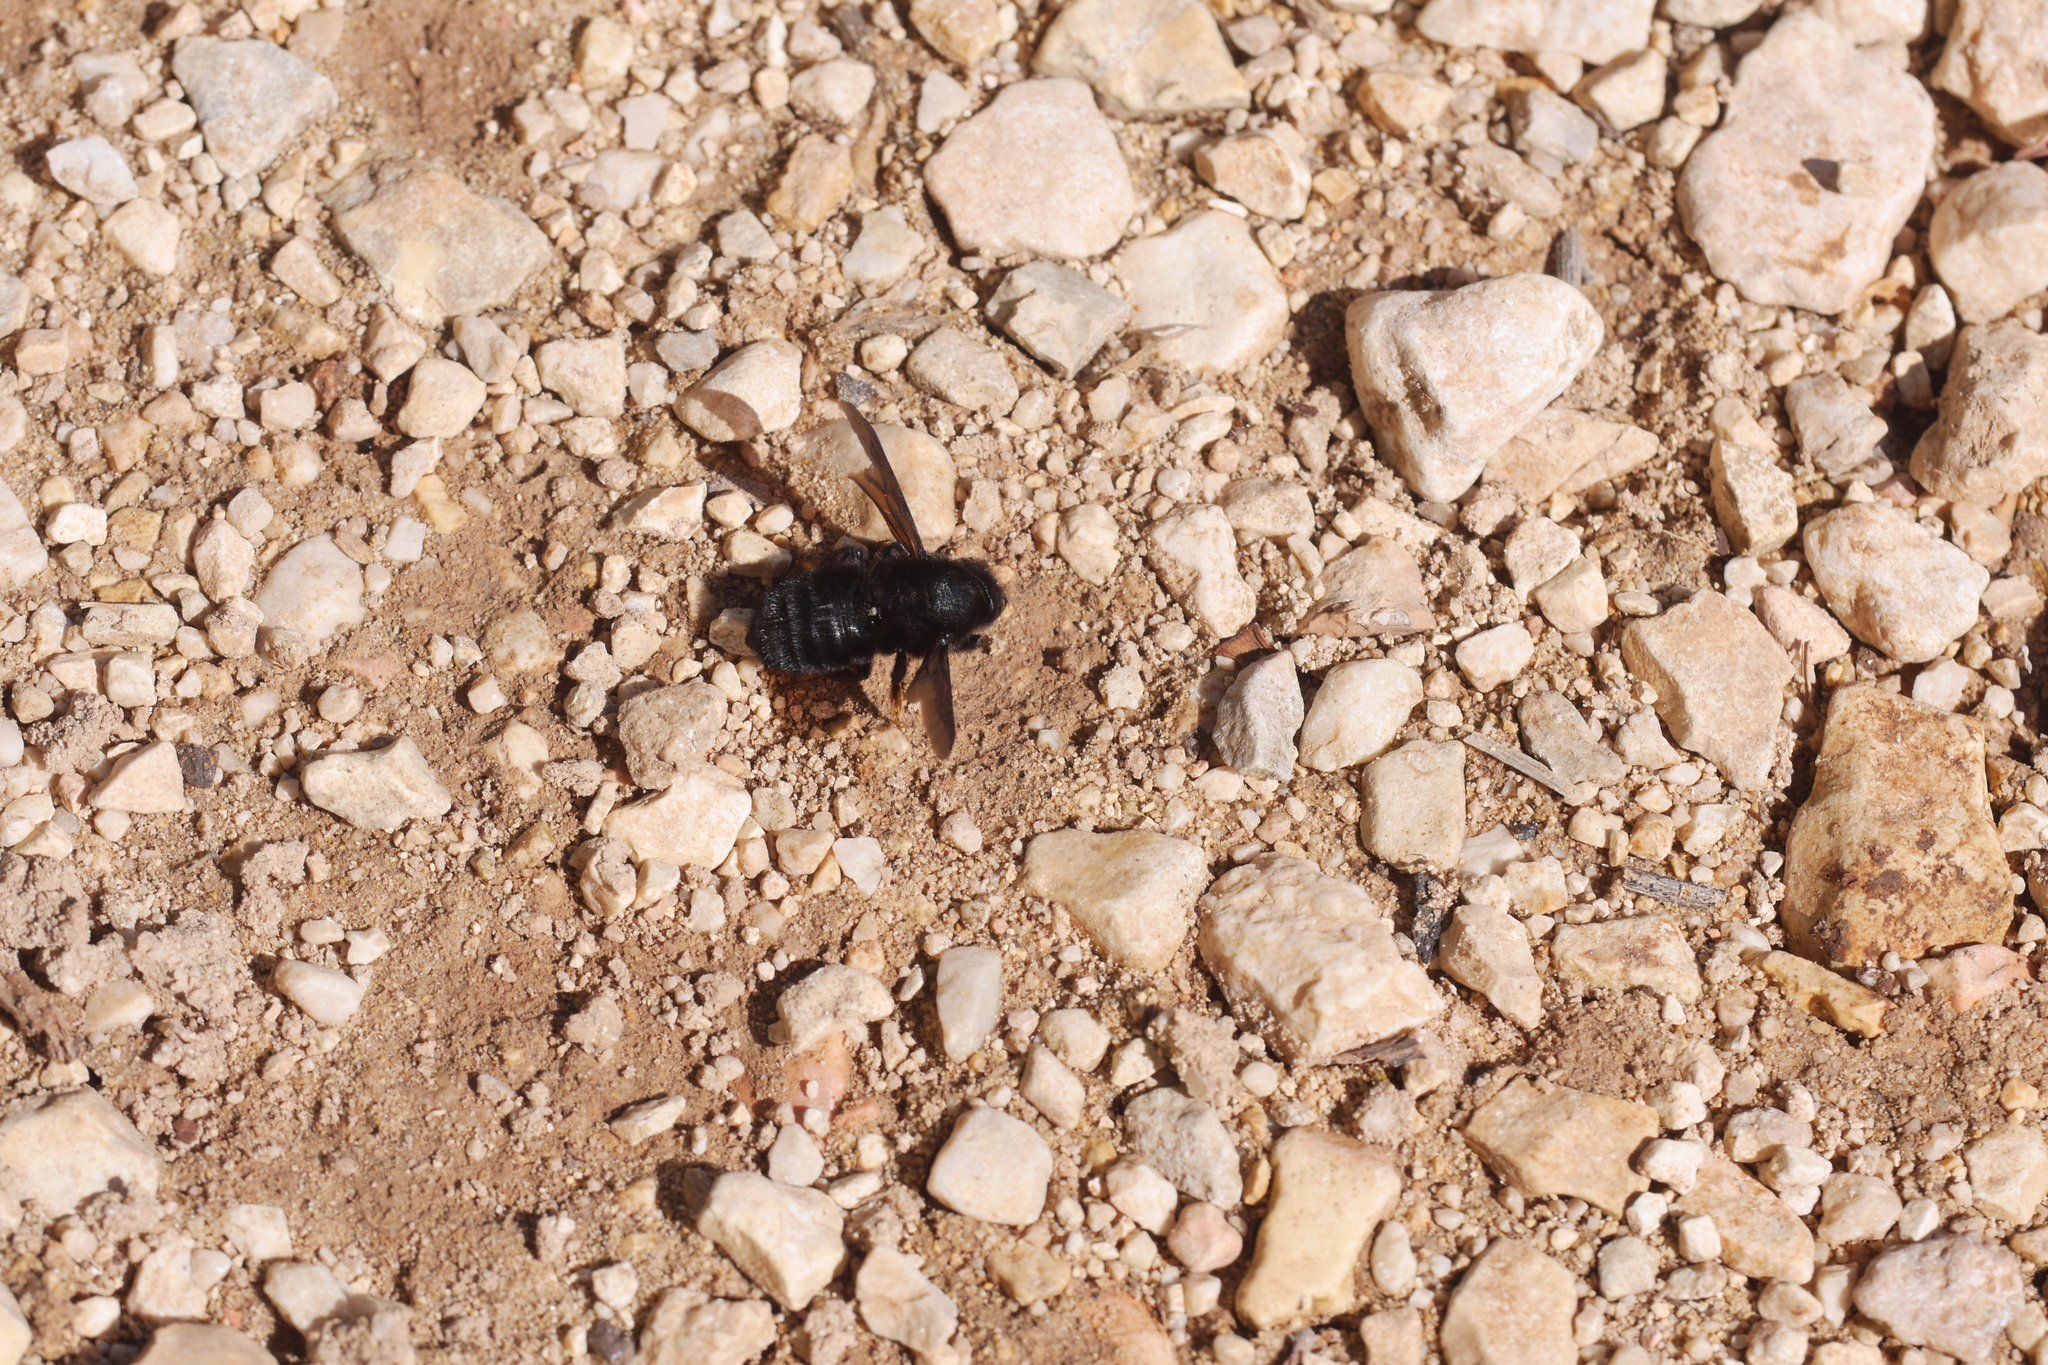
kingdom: Animalia
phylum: Arthropoda
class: Insecta
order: Hymenoptera
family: Megachilidae
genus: Megachile
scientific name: Megachile parietina
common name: Black mud bee
